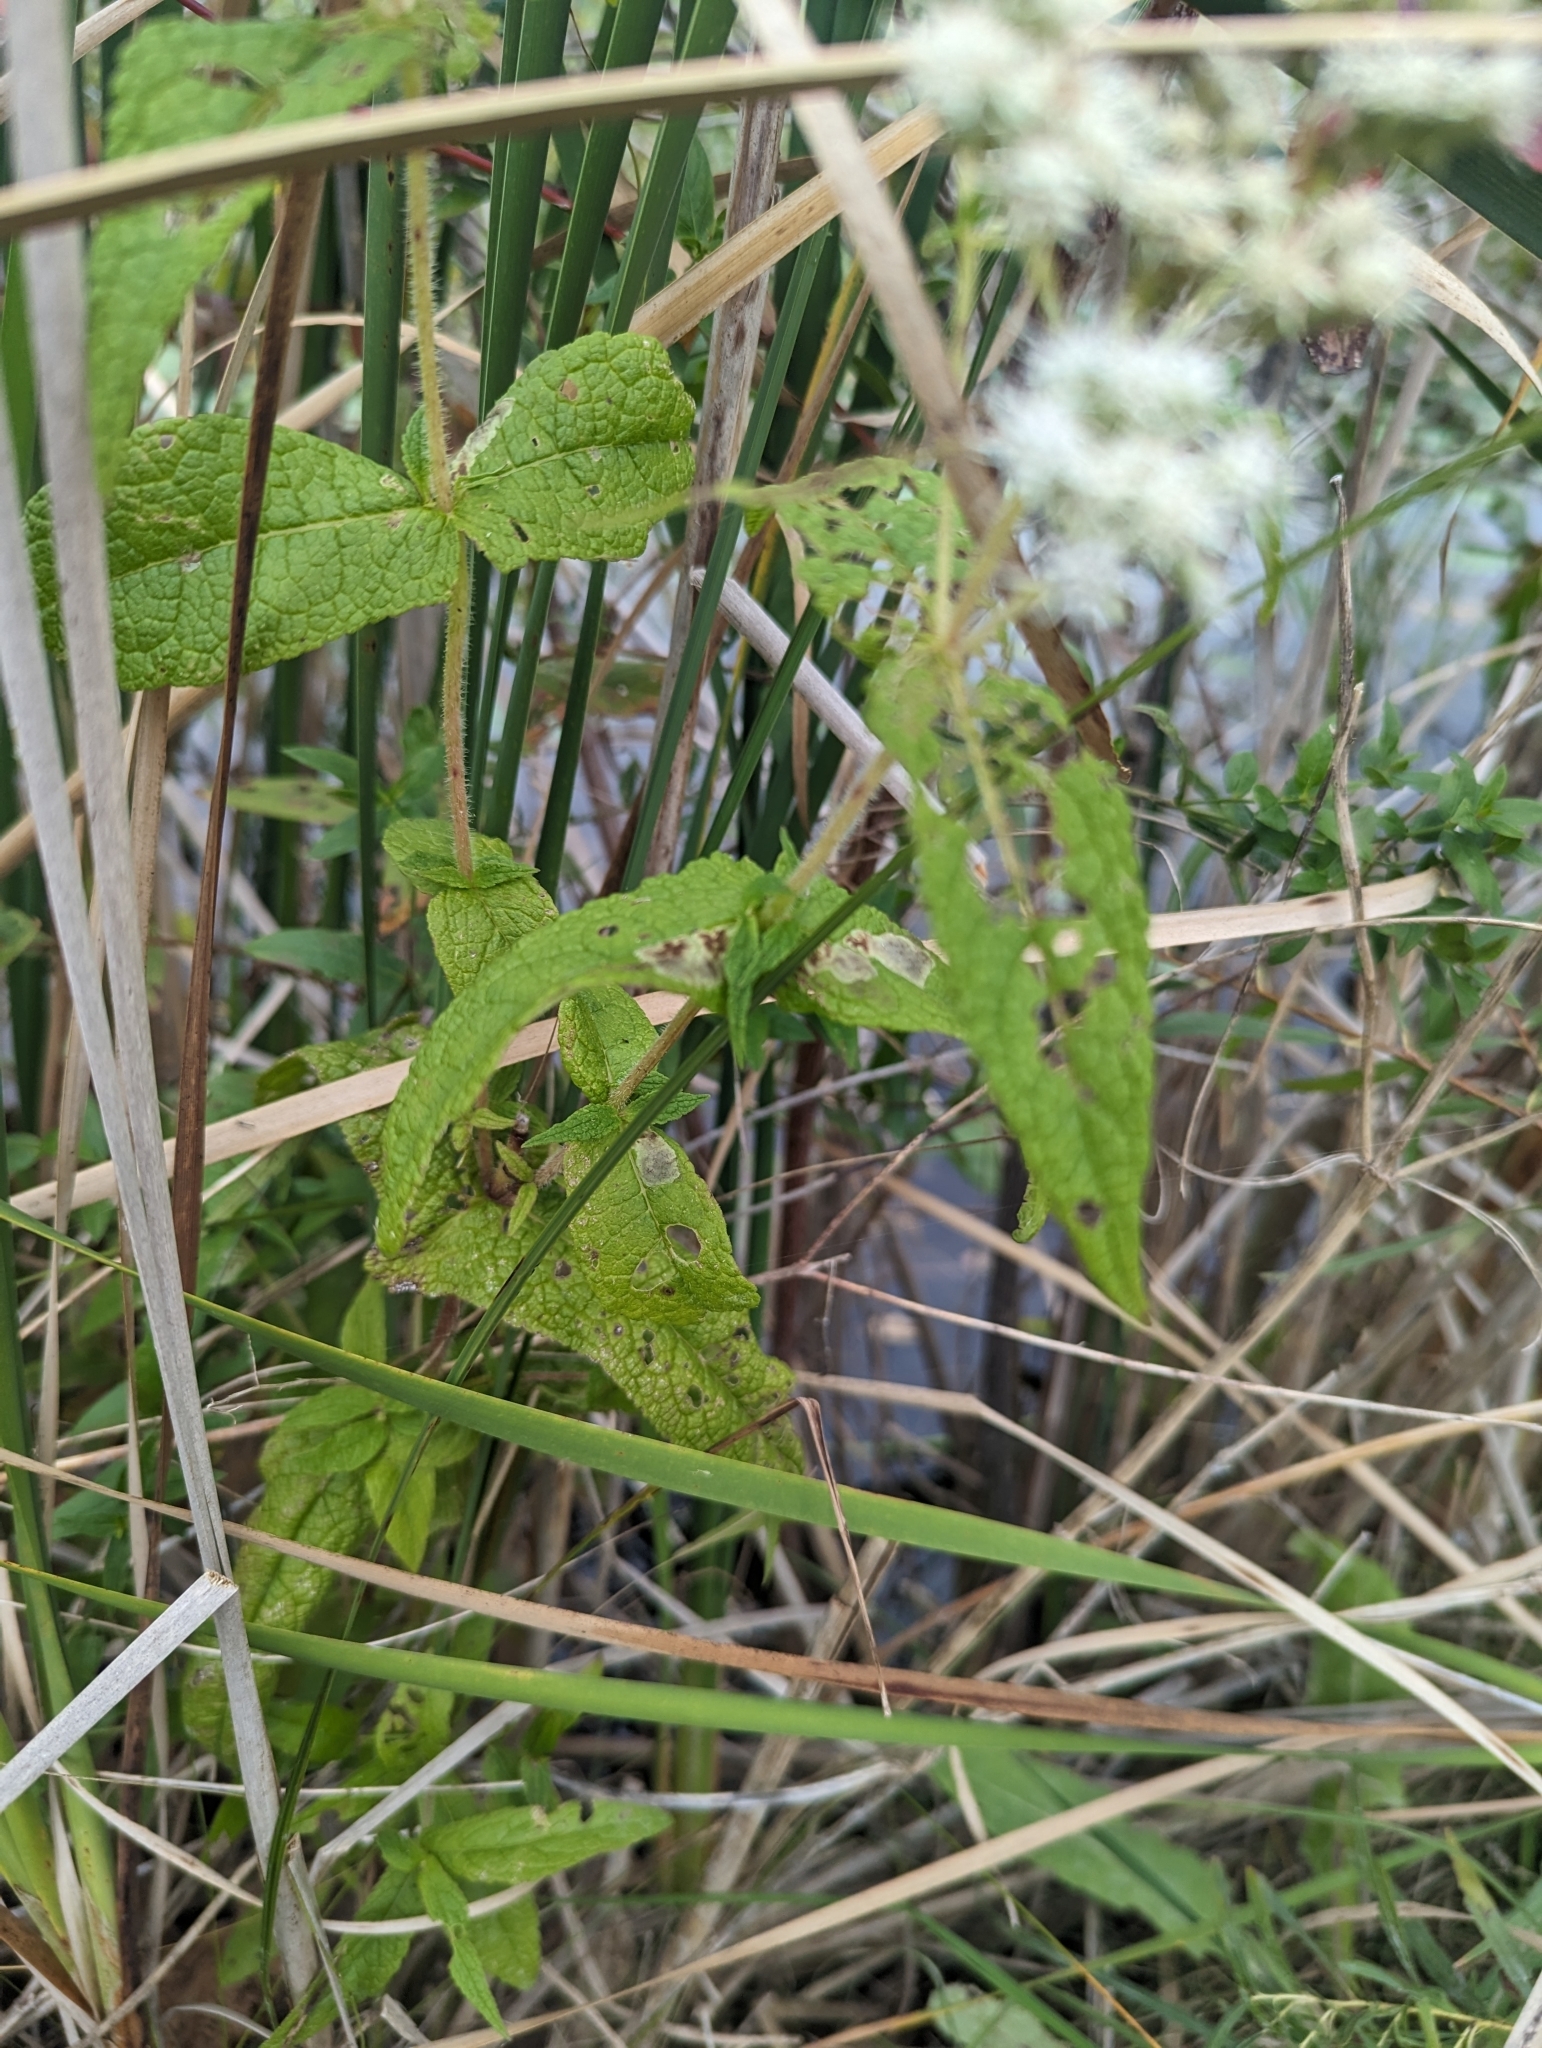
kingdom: Plantae
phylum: Tracheophyta
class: Magnoliopsida
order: Asterales
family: Asteraceae
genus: Eupatorium
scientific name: Eupatorium perfoliatum
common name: Boneset
